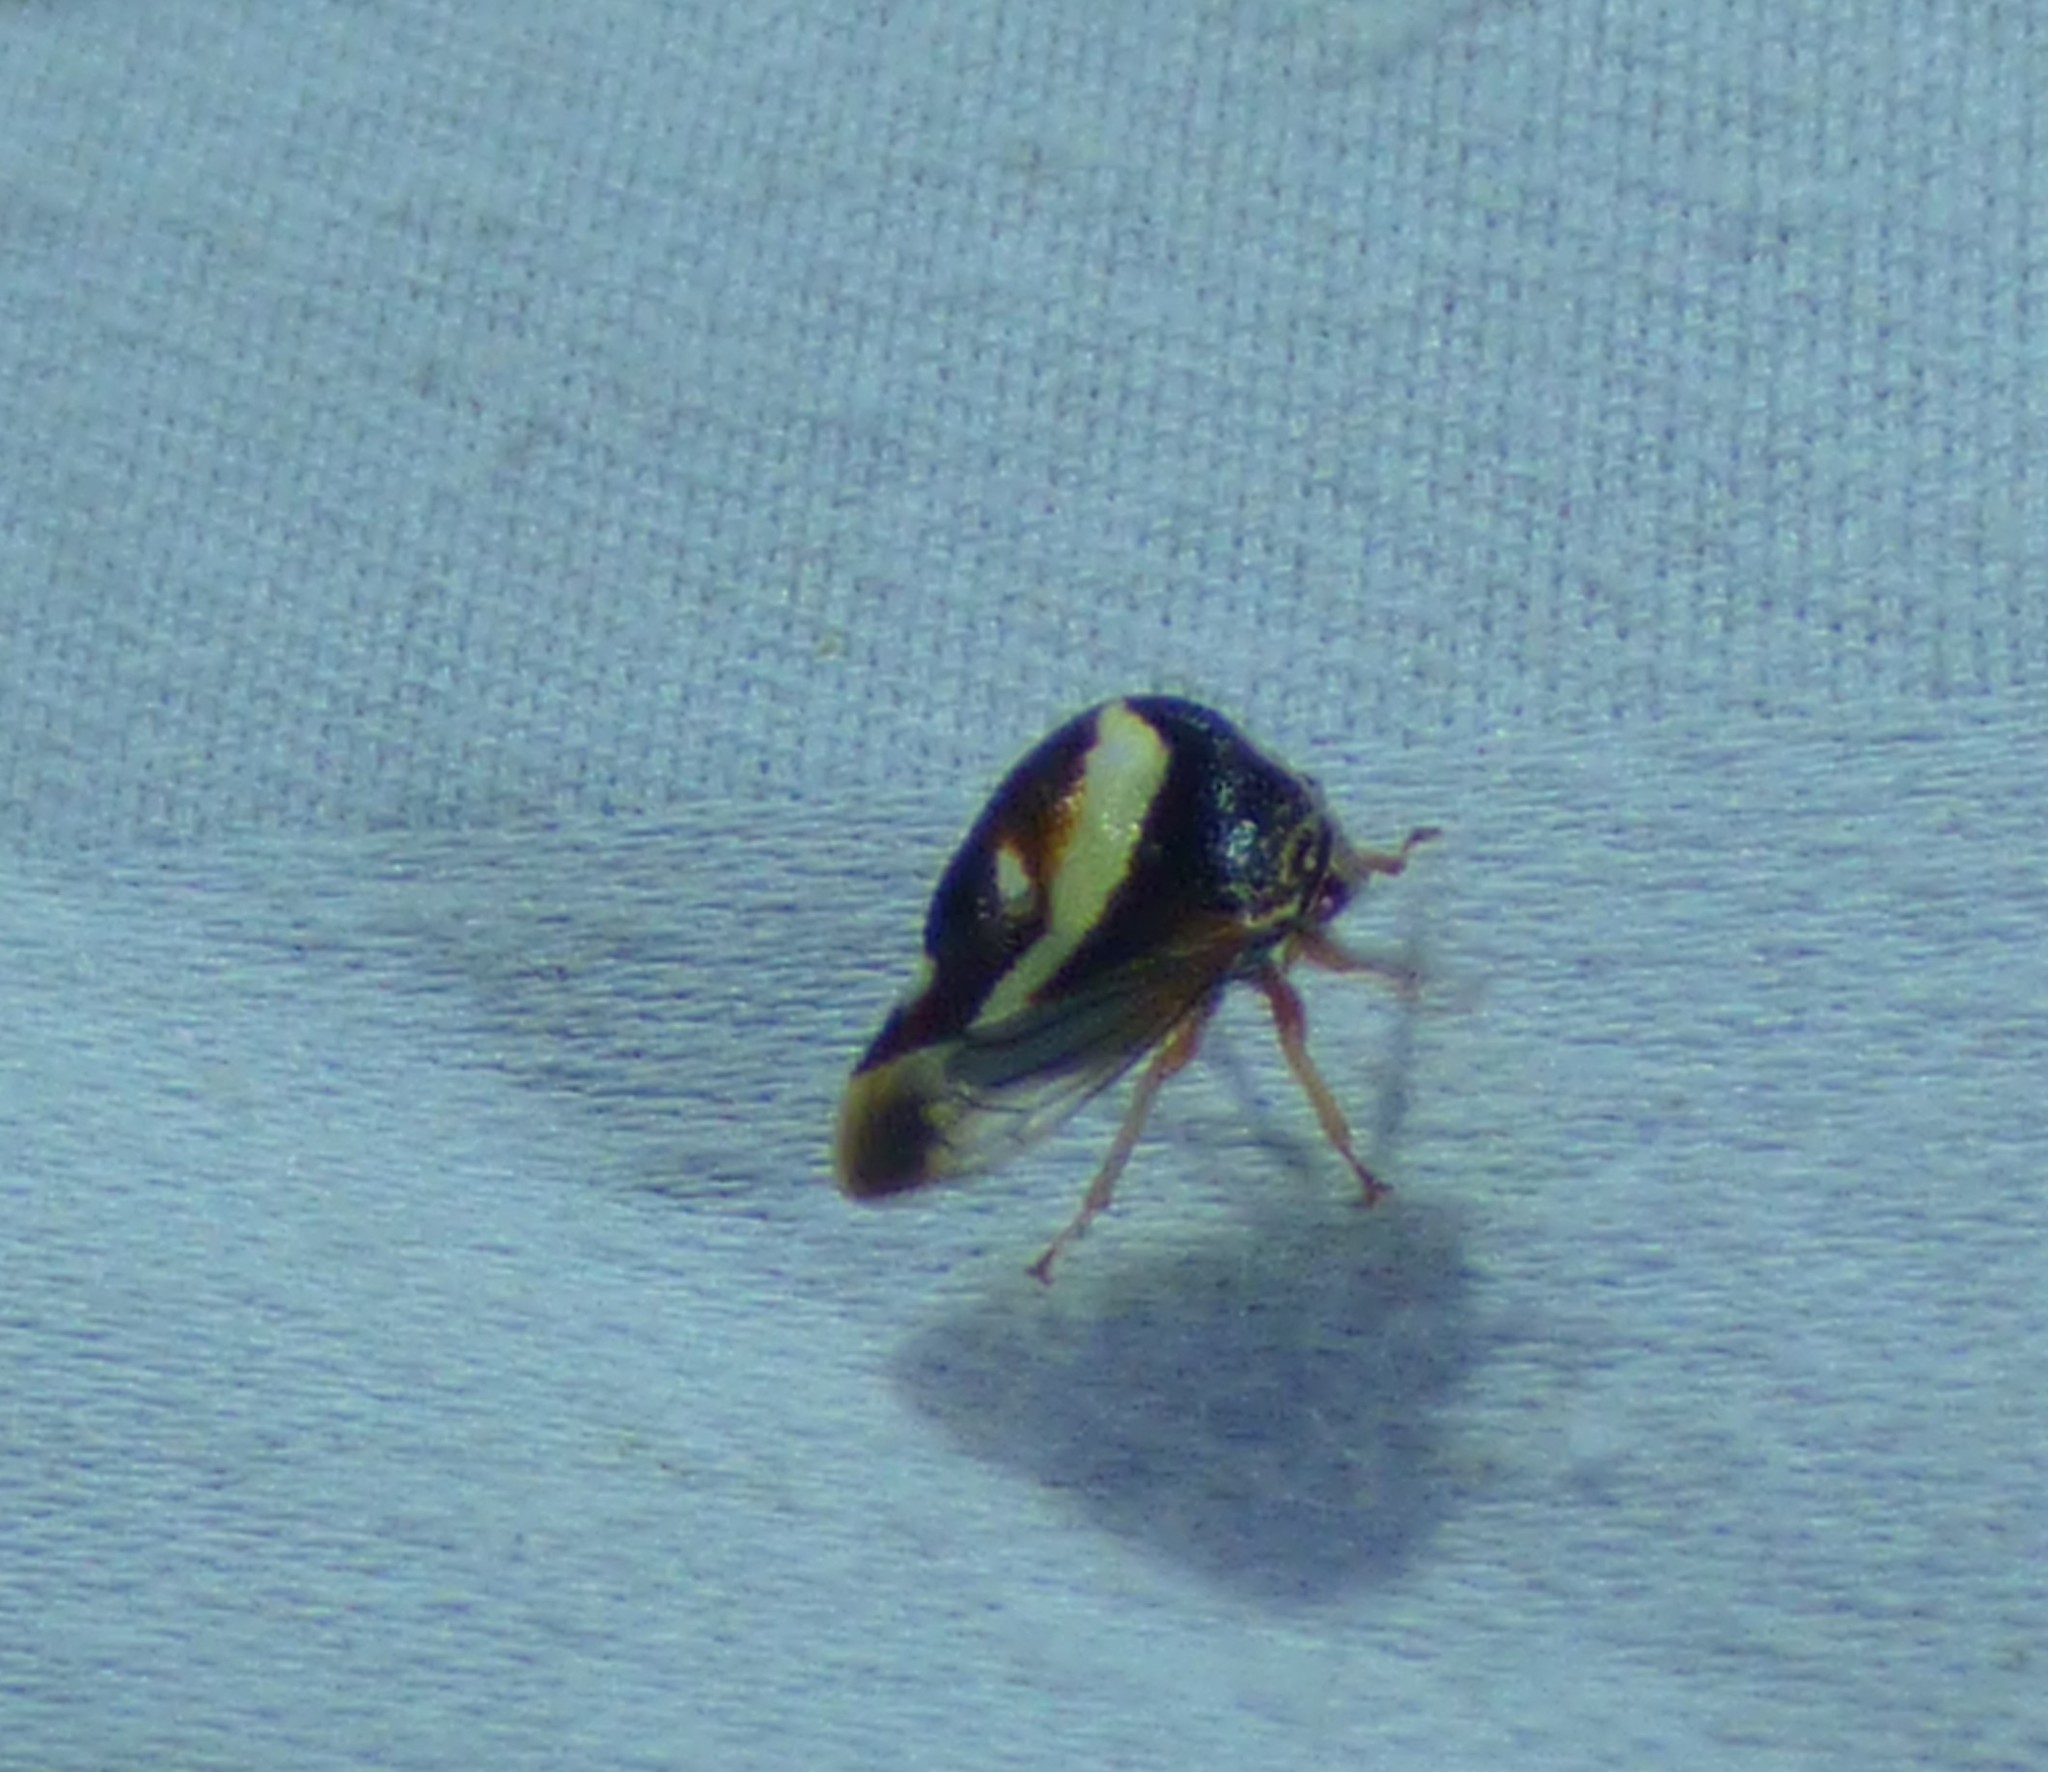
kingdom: Animalia
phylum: Arthropoda
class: Insecta
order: Hemiptera
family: Membracidae
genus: Smilia
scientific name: Smilia camelus
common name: Camel treehopper
